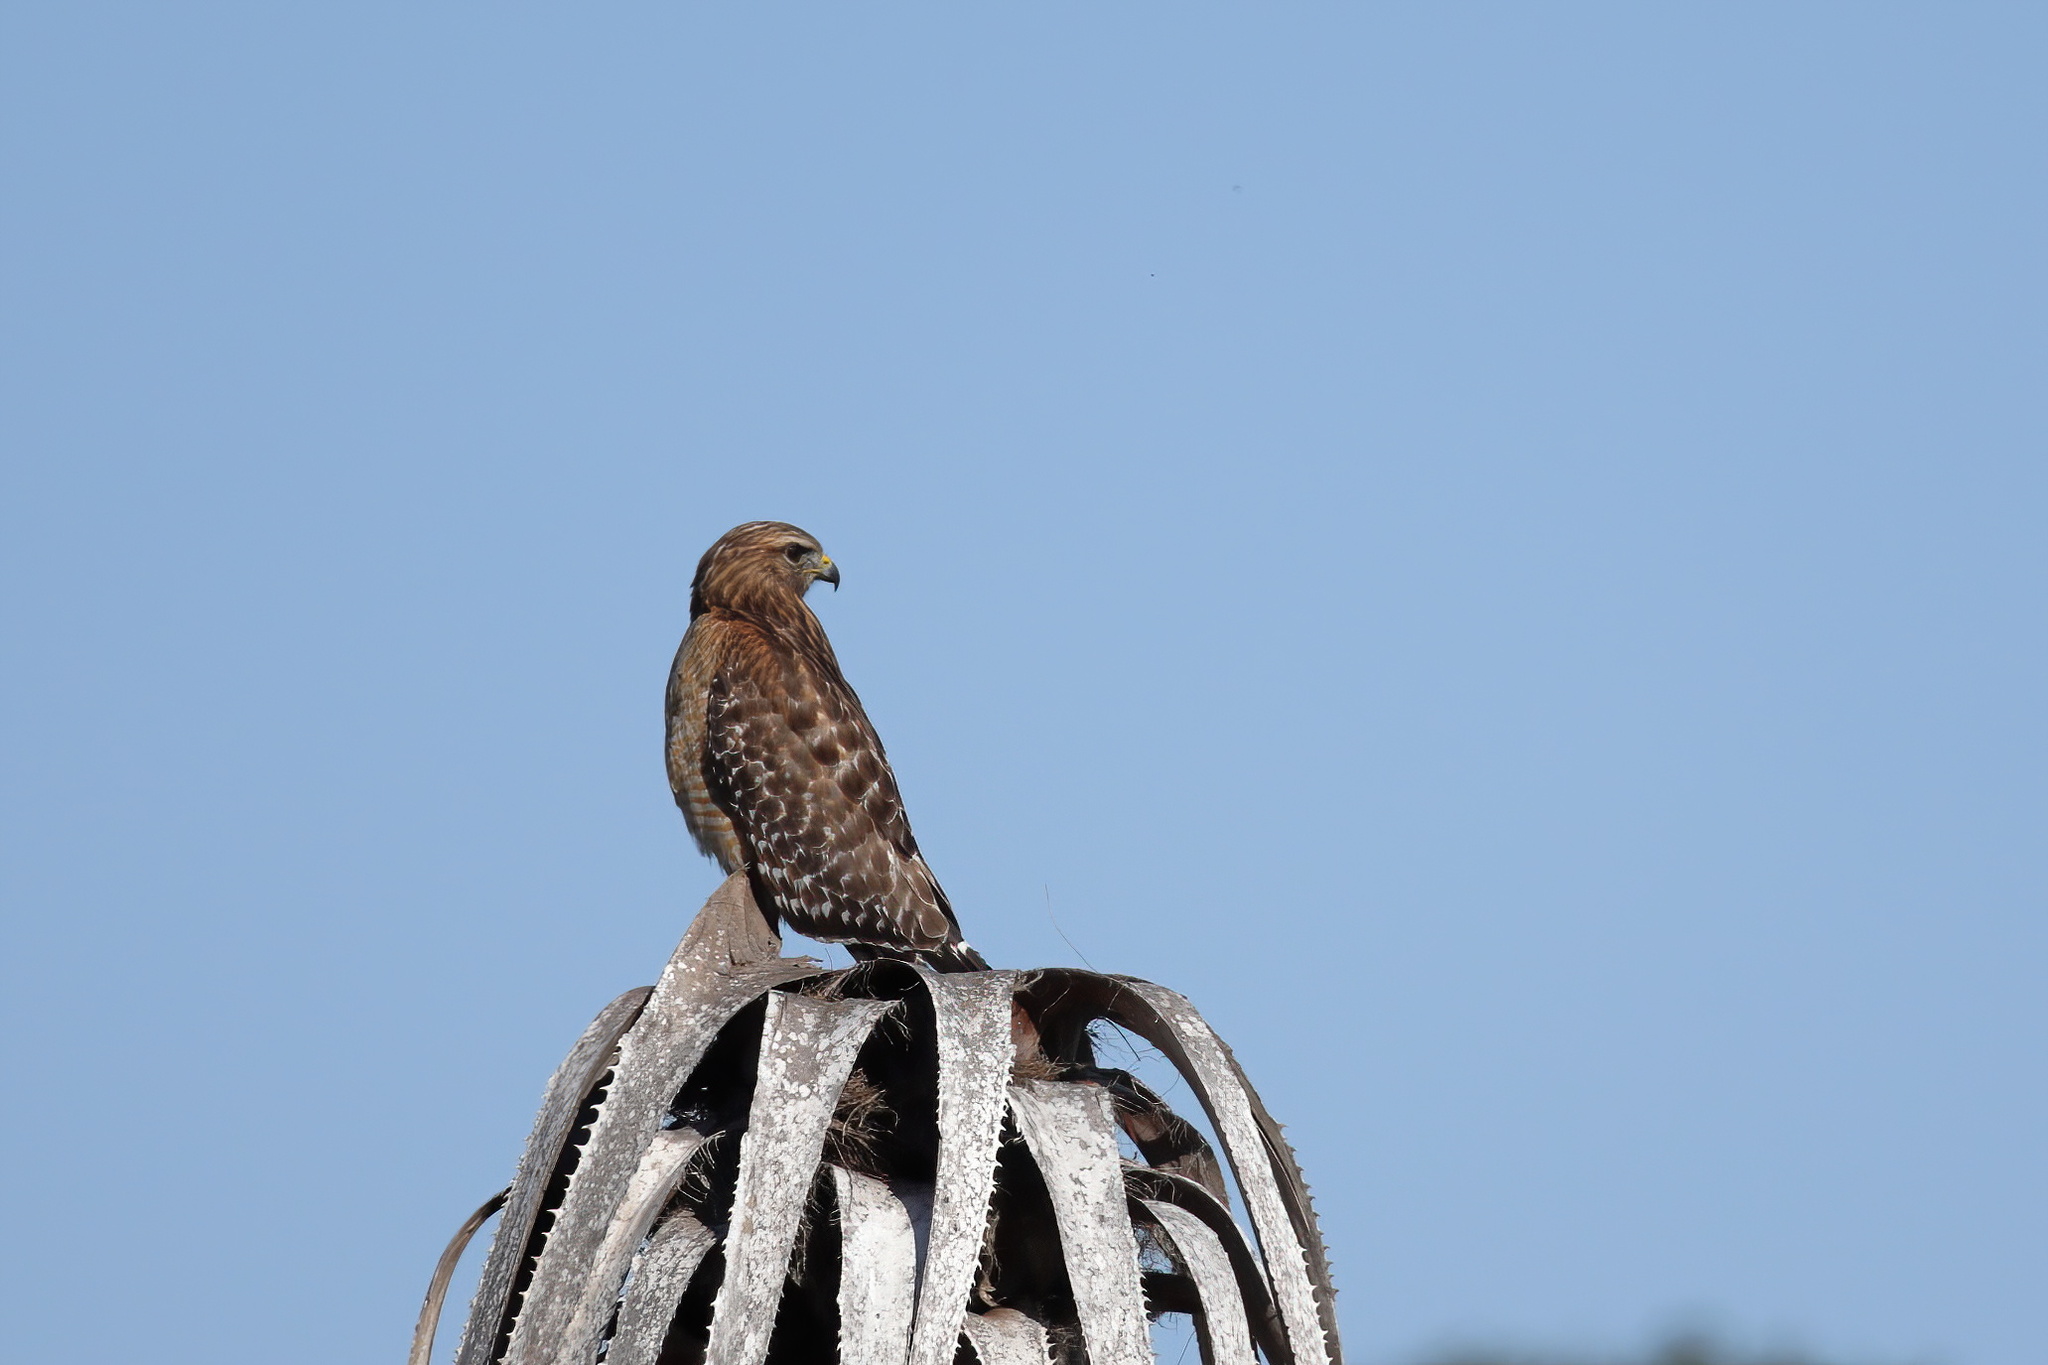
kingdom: Animalia
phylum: Chordata
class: Aves
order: Accipitriformes
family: Accipitridae
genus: Buteo
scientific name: Buteo lineatus
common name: Red-shouldered hawk
